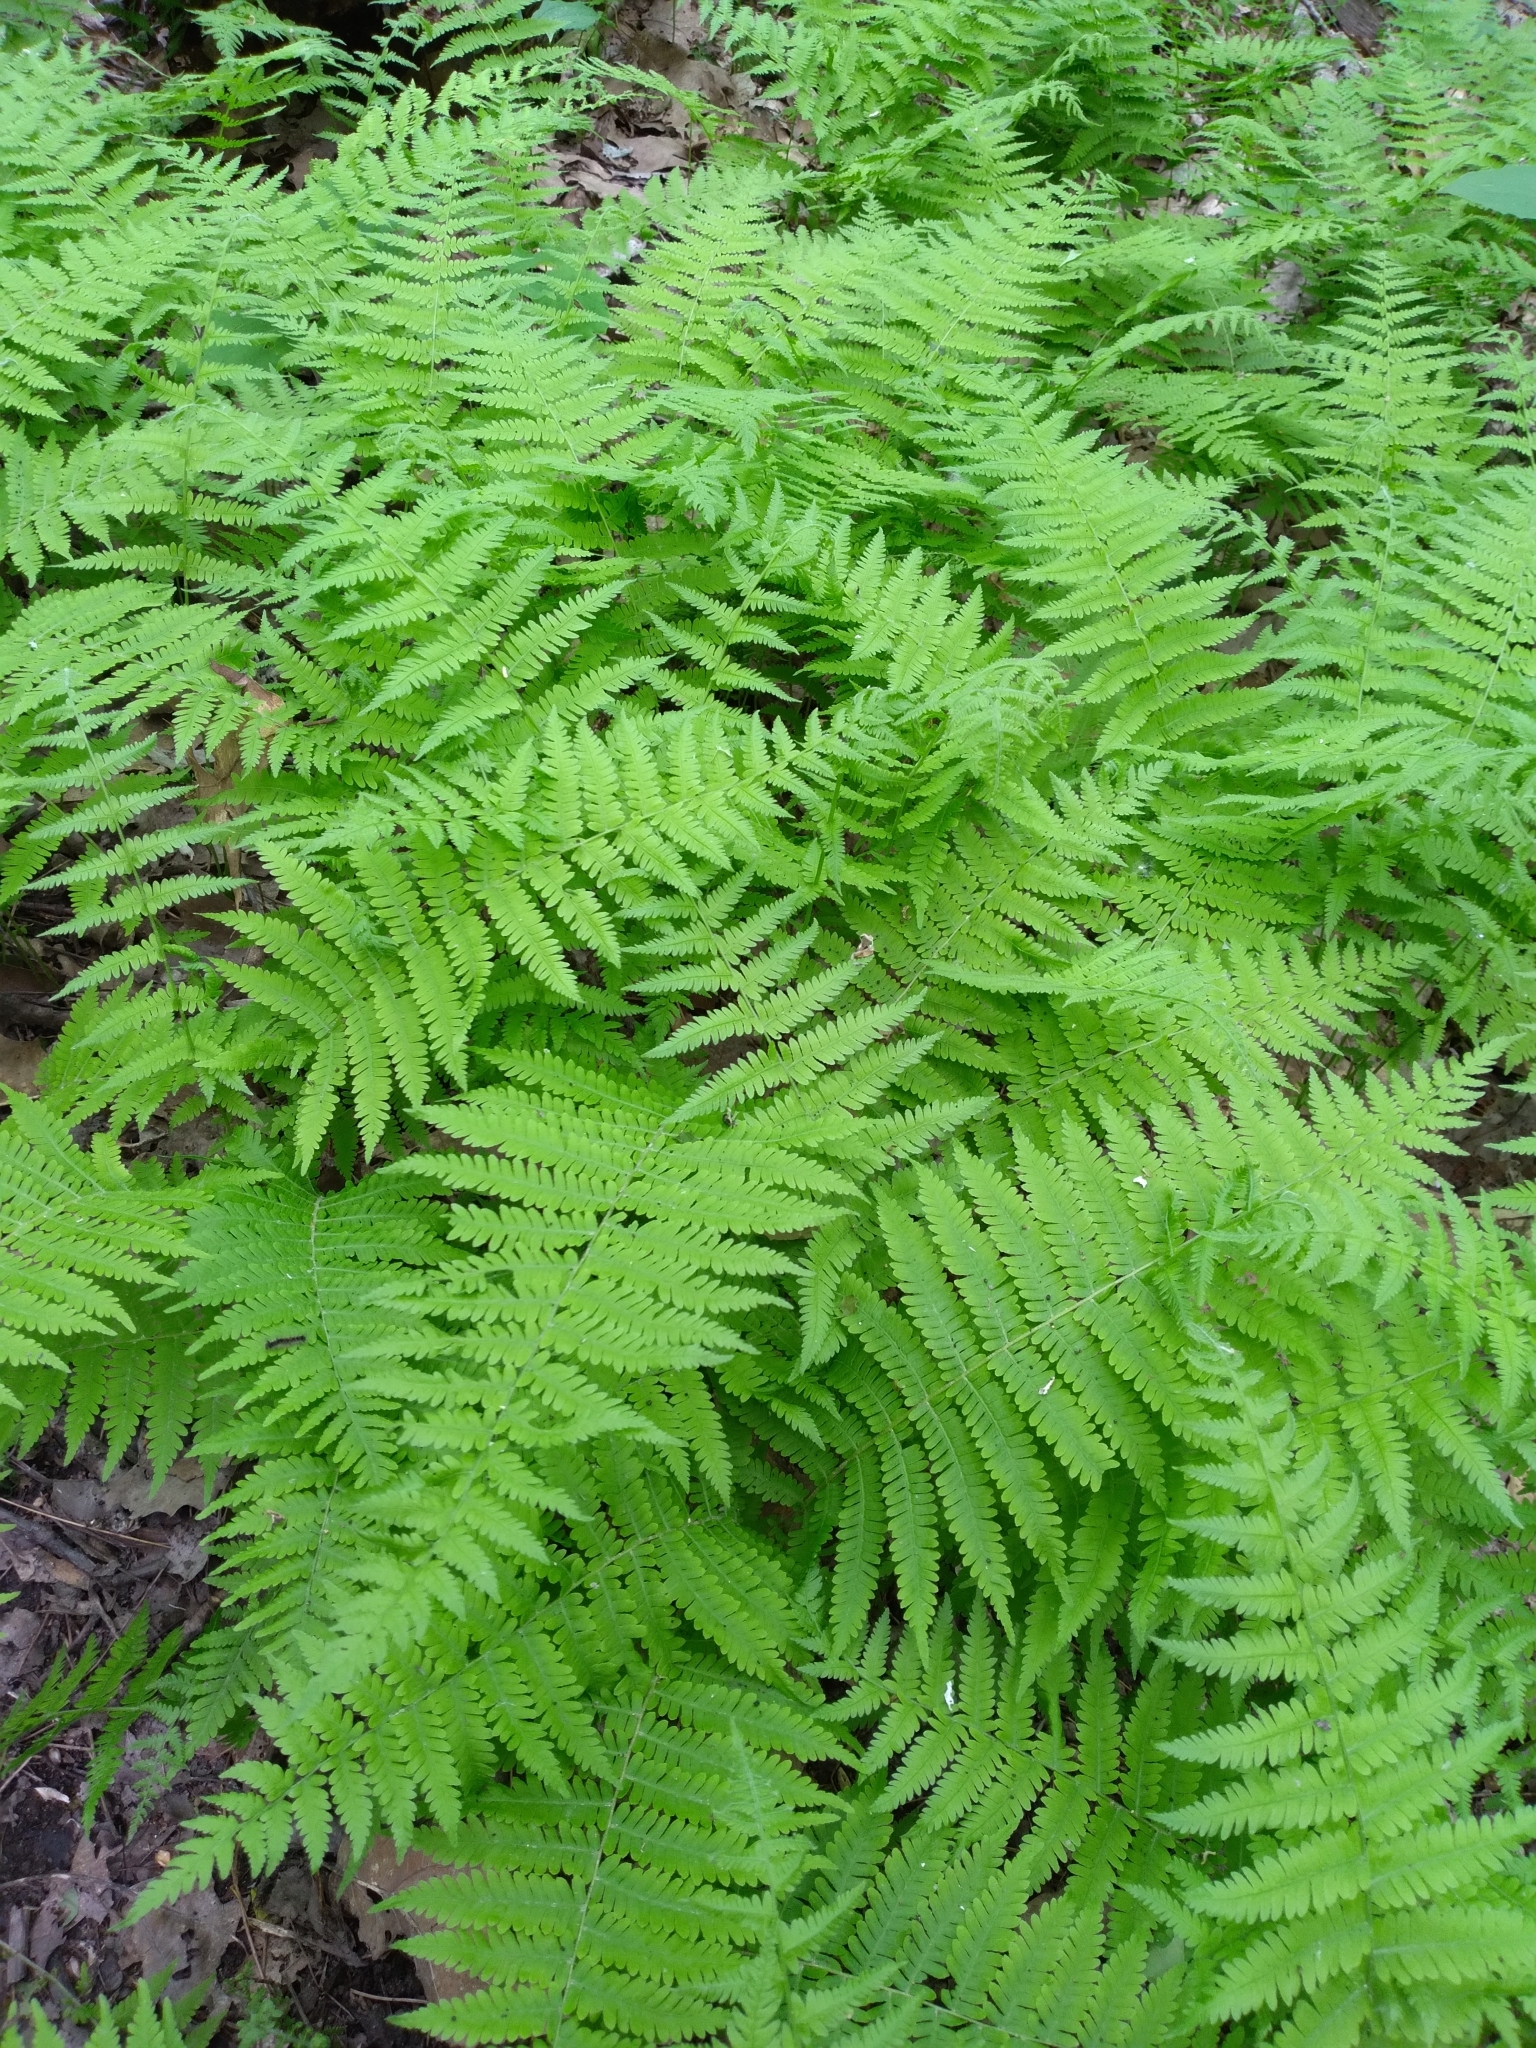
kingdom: Plantae
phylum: Tracheophyta
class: Polypodiopsida
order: Polypodiales
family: Thelypteridaceae
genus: Amauropelta
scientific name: Amauropelta noveboracensis
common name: New york fern
